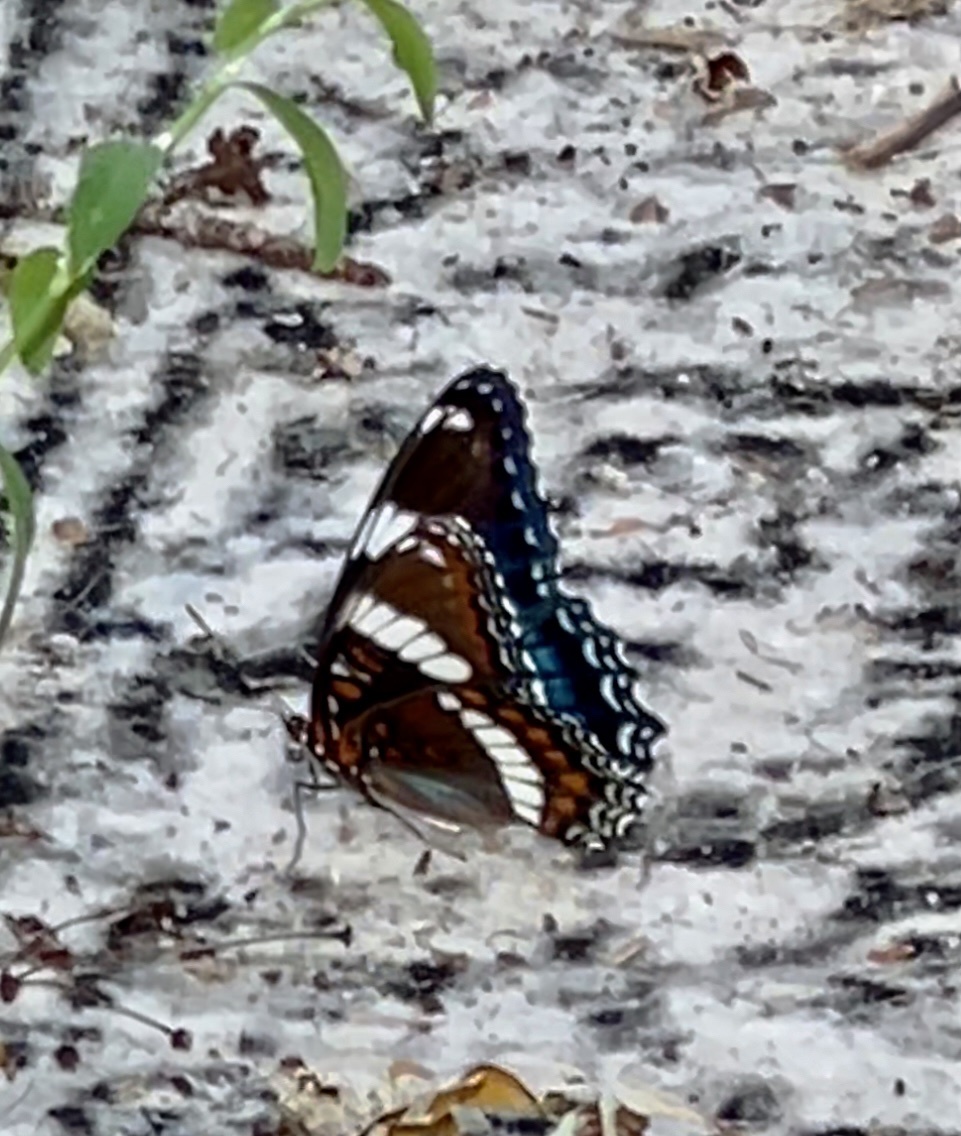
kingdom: Animalia
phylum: Arthropoda
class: Insecta
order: Lepidoptera
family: Nymphalidae
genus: Limenitis
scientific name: Limenitis arthemis
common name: Red-spotted admiral
